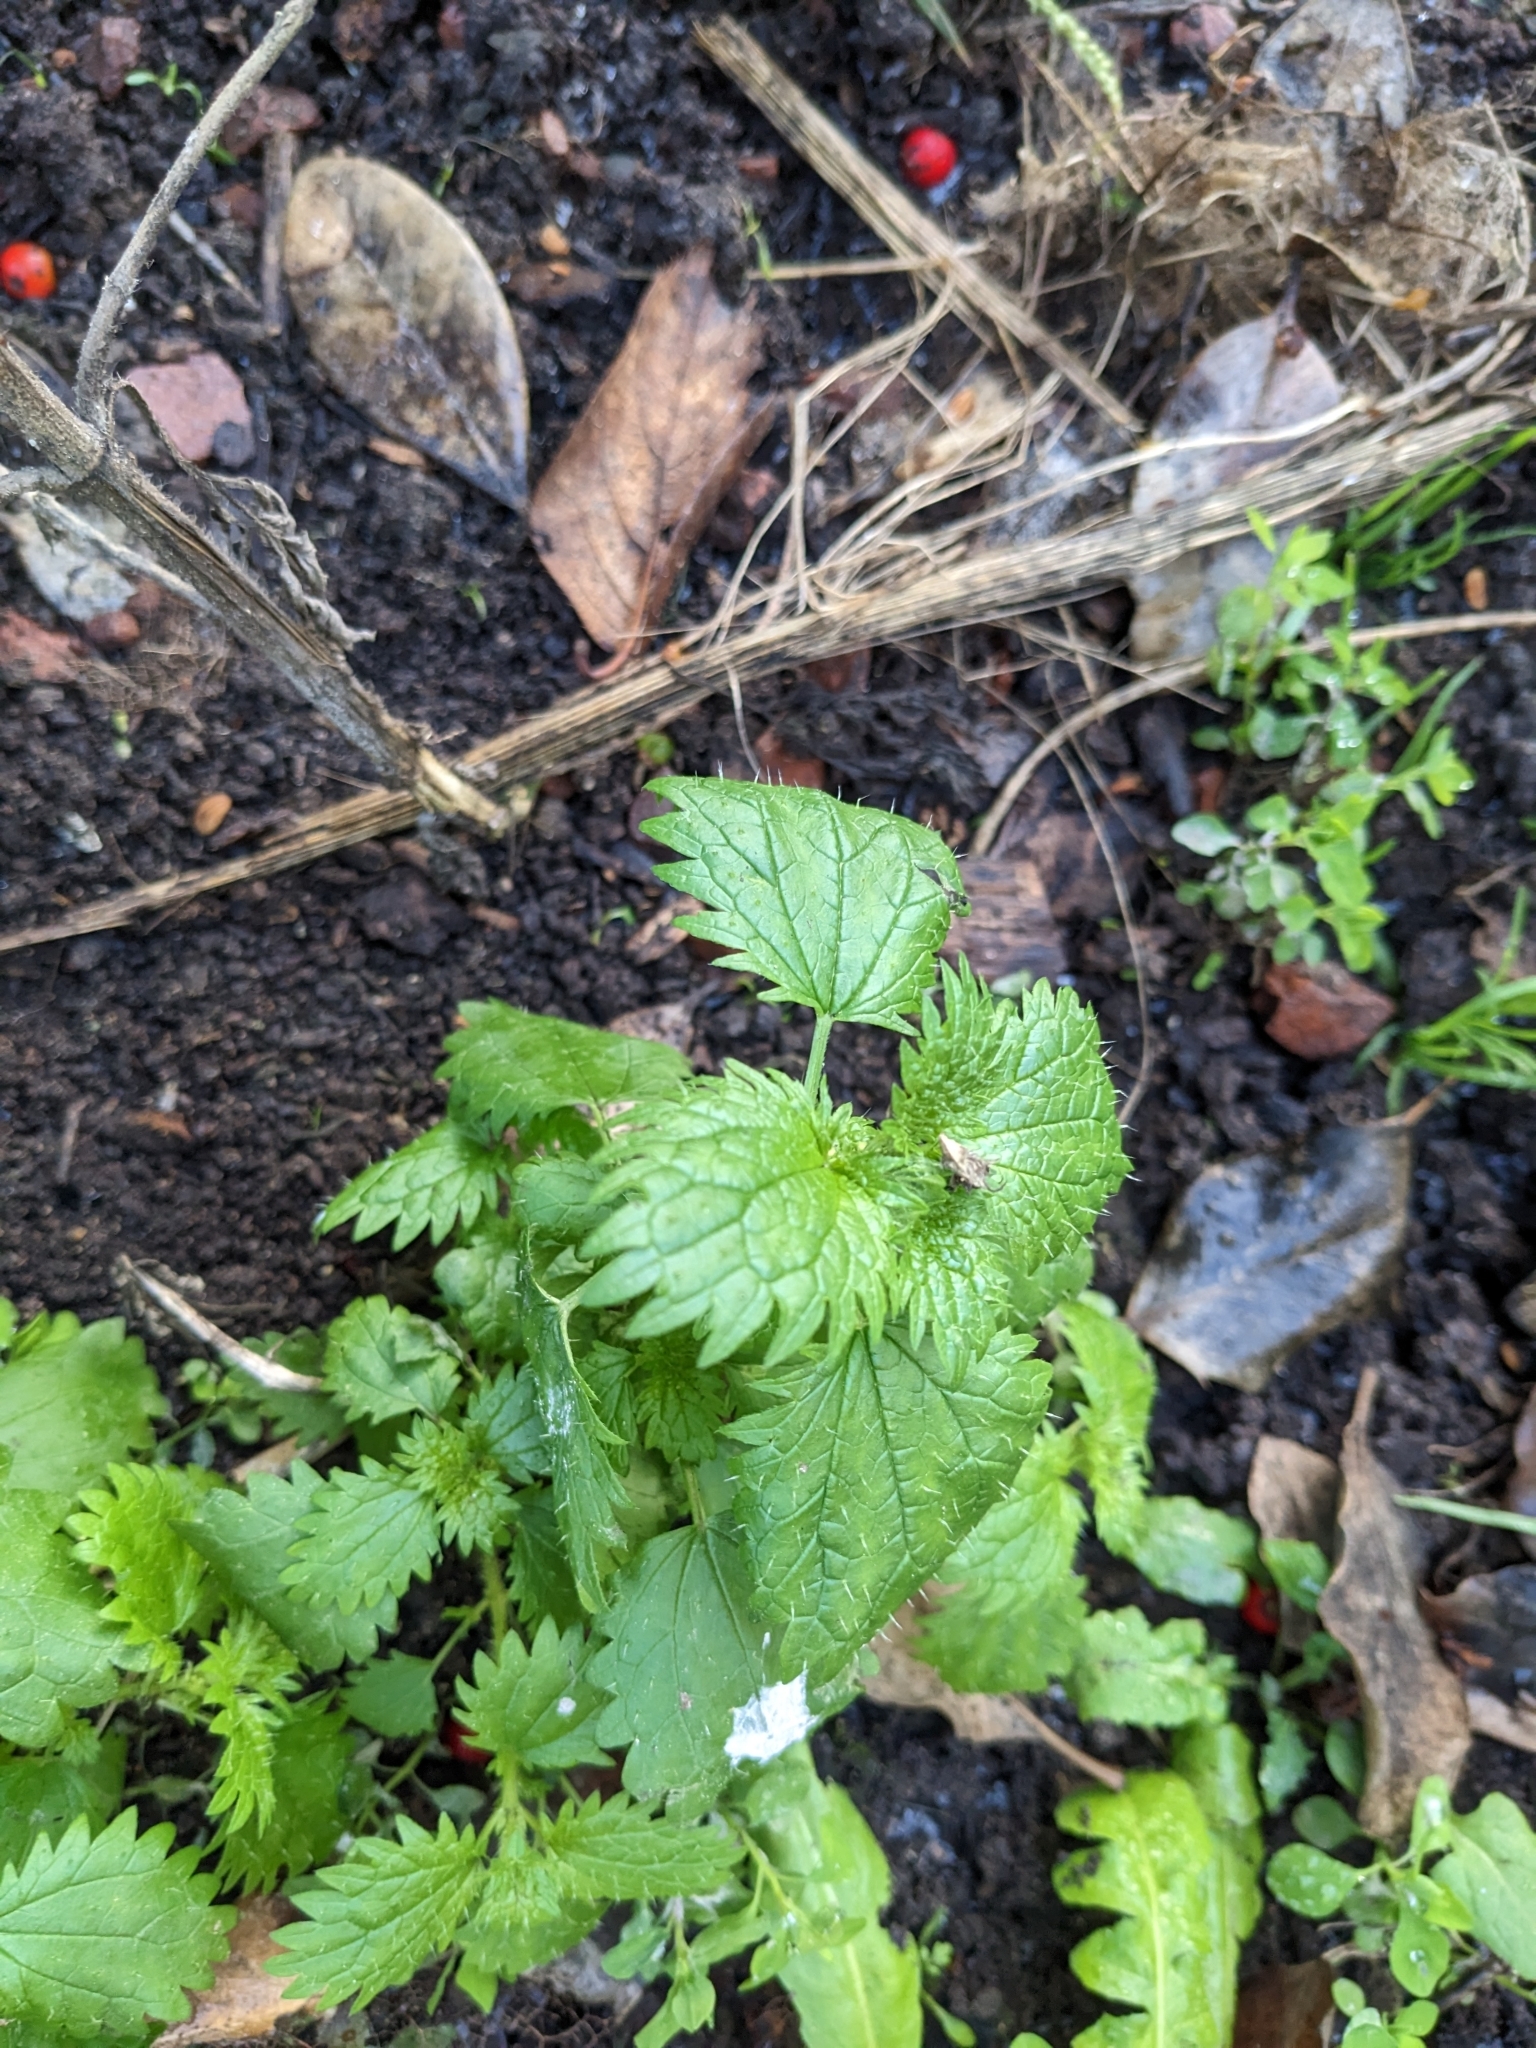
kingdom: Plantae
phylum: Tracheophyta
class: Magnoliopsida
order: Rosales
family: Urticaceae
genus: Urtica
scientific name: Urtica urens
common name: Dwarf nettle
